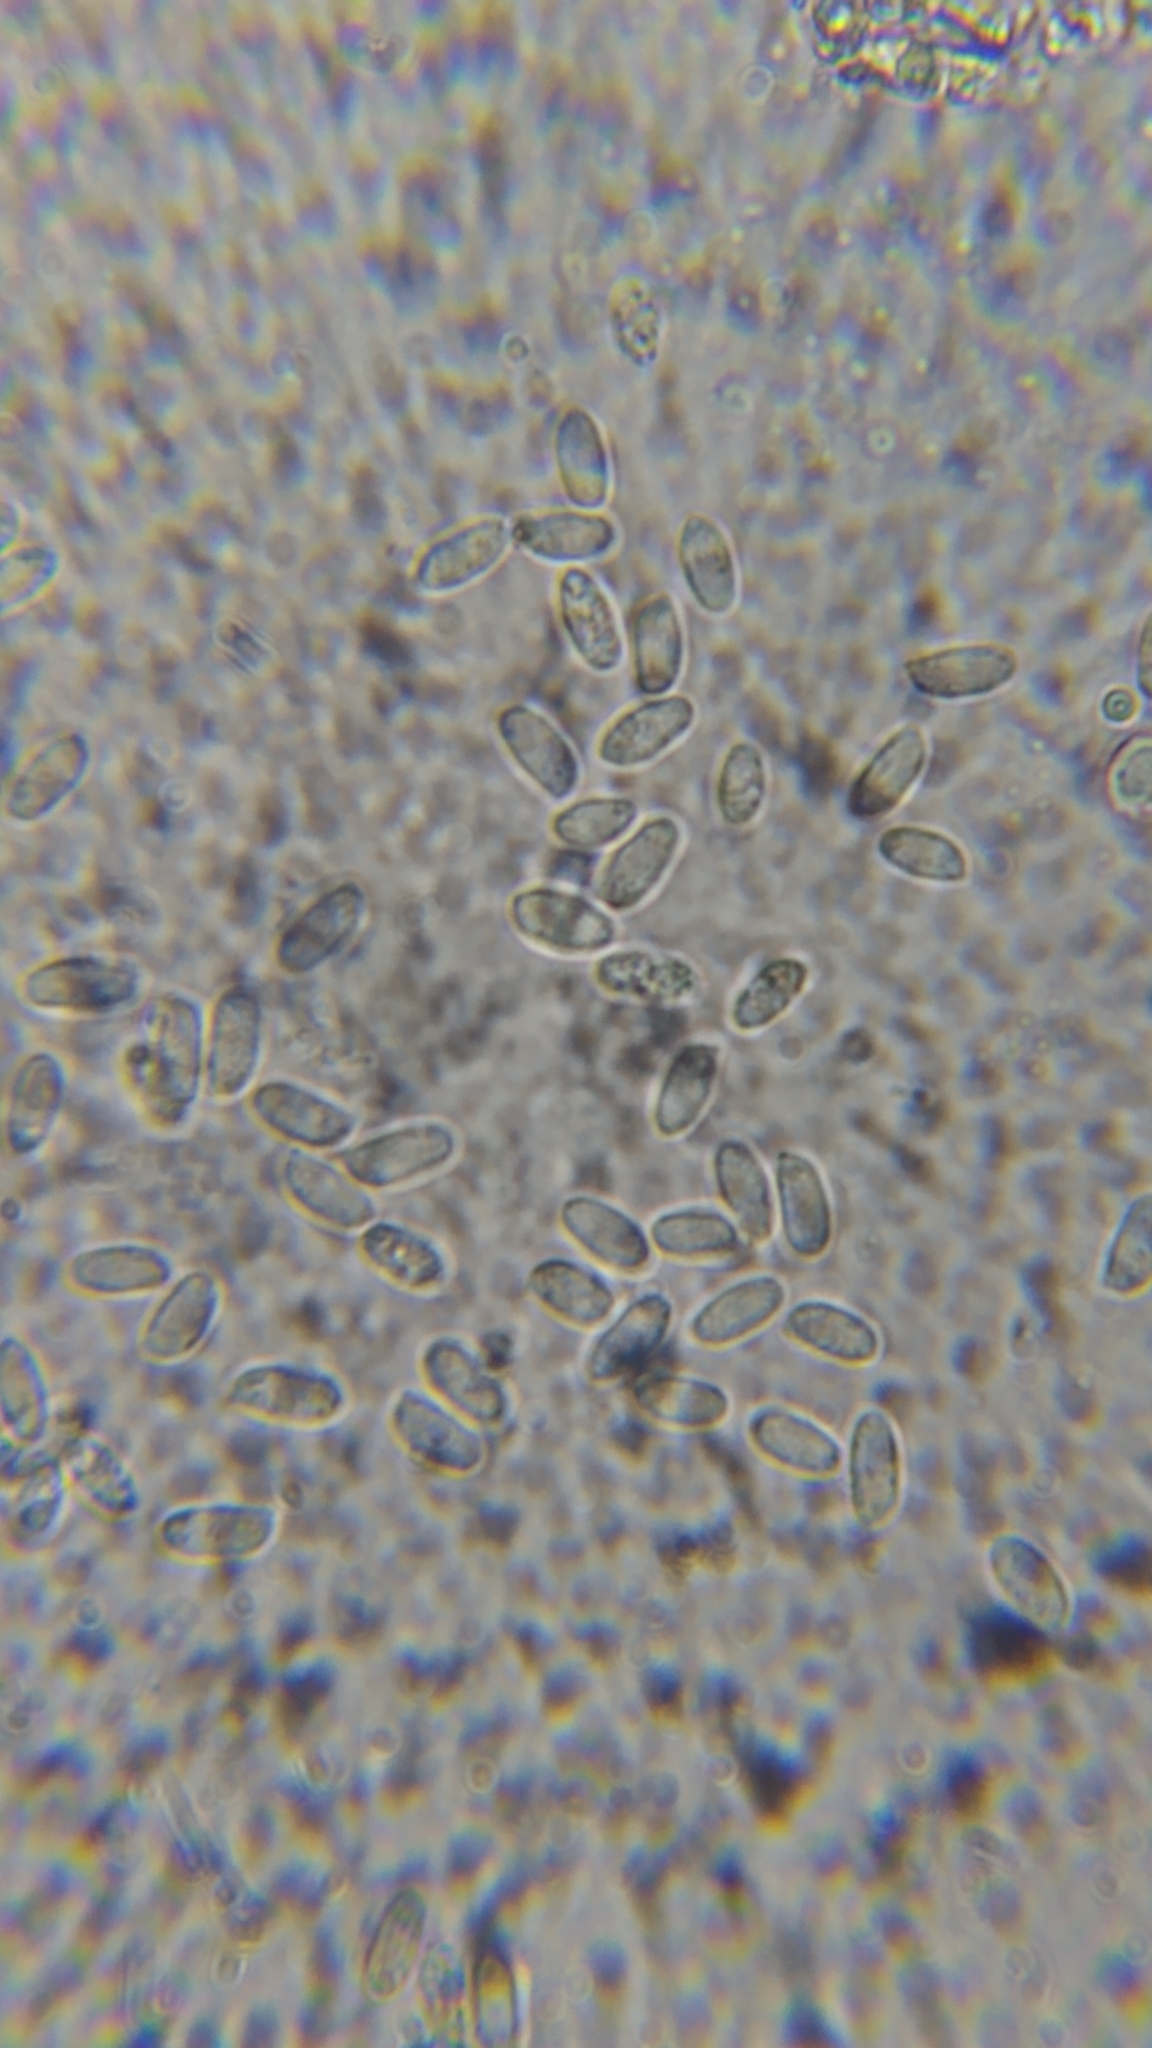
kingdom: Fungi
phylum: Basidiomycota
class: Agaricomycetes
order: Agaricales
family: Physalacriaceae
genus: Flammulina
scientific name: Flammulina velutipes
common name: Velvet shank
